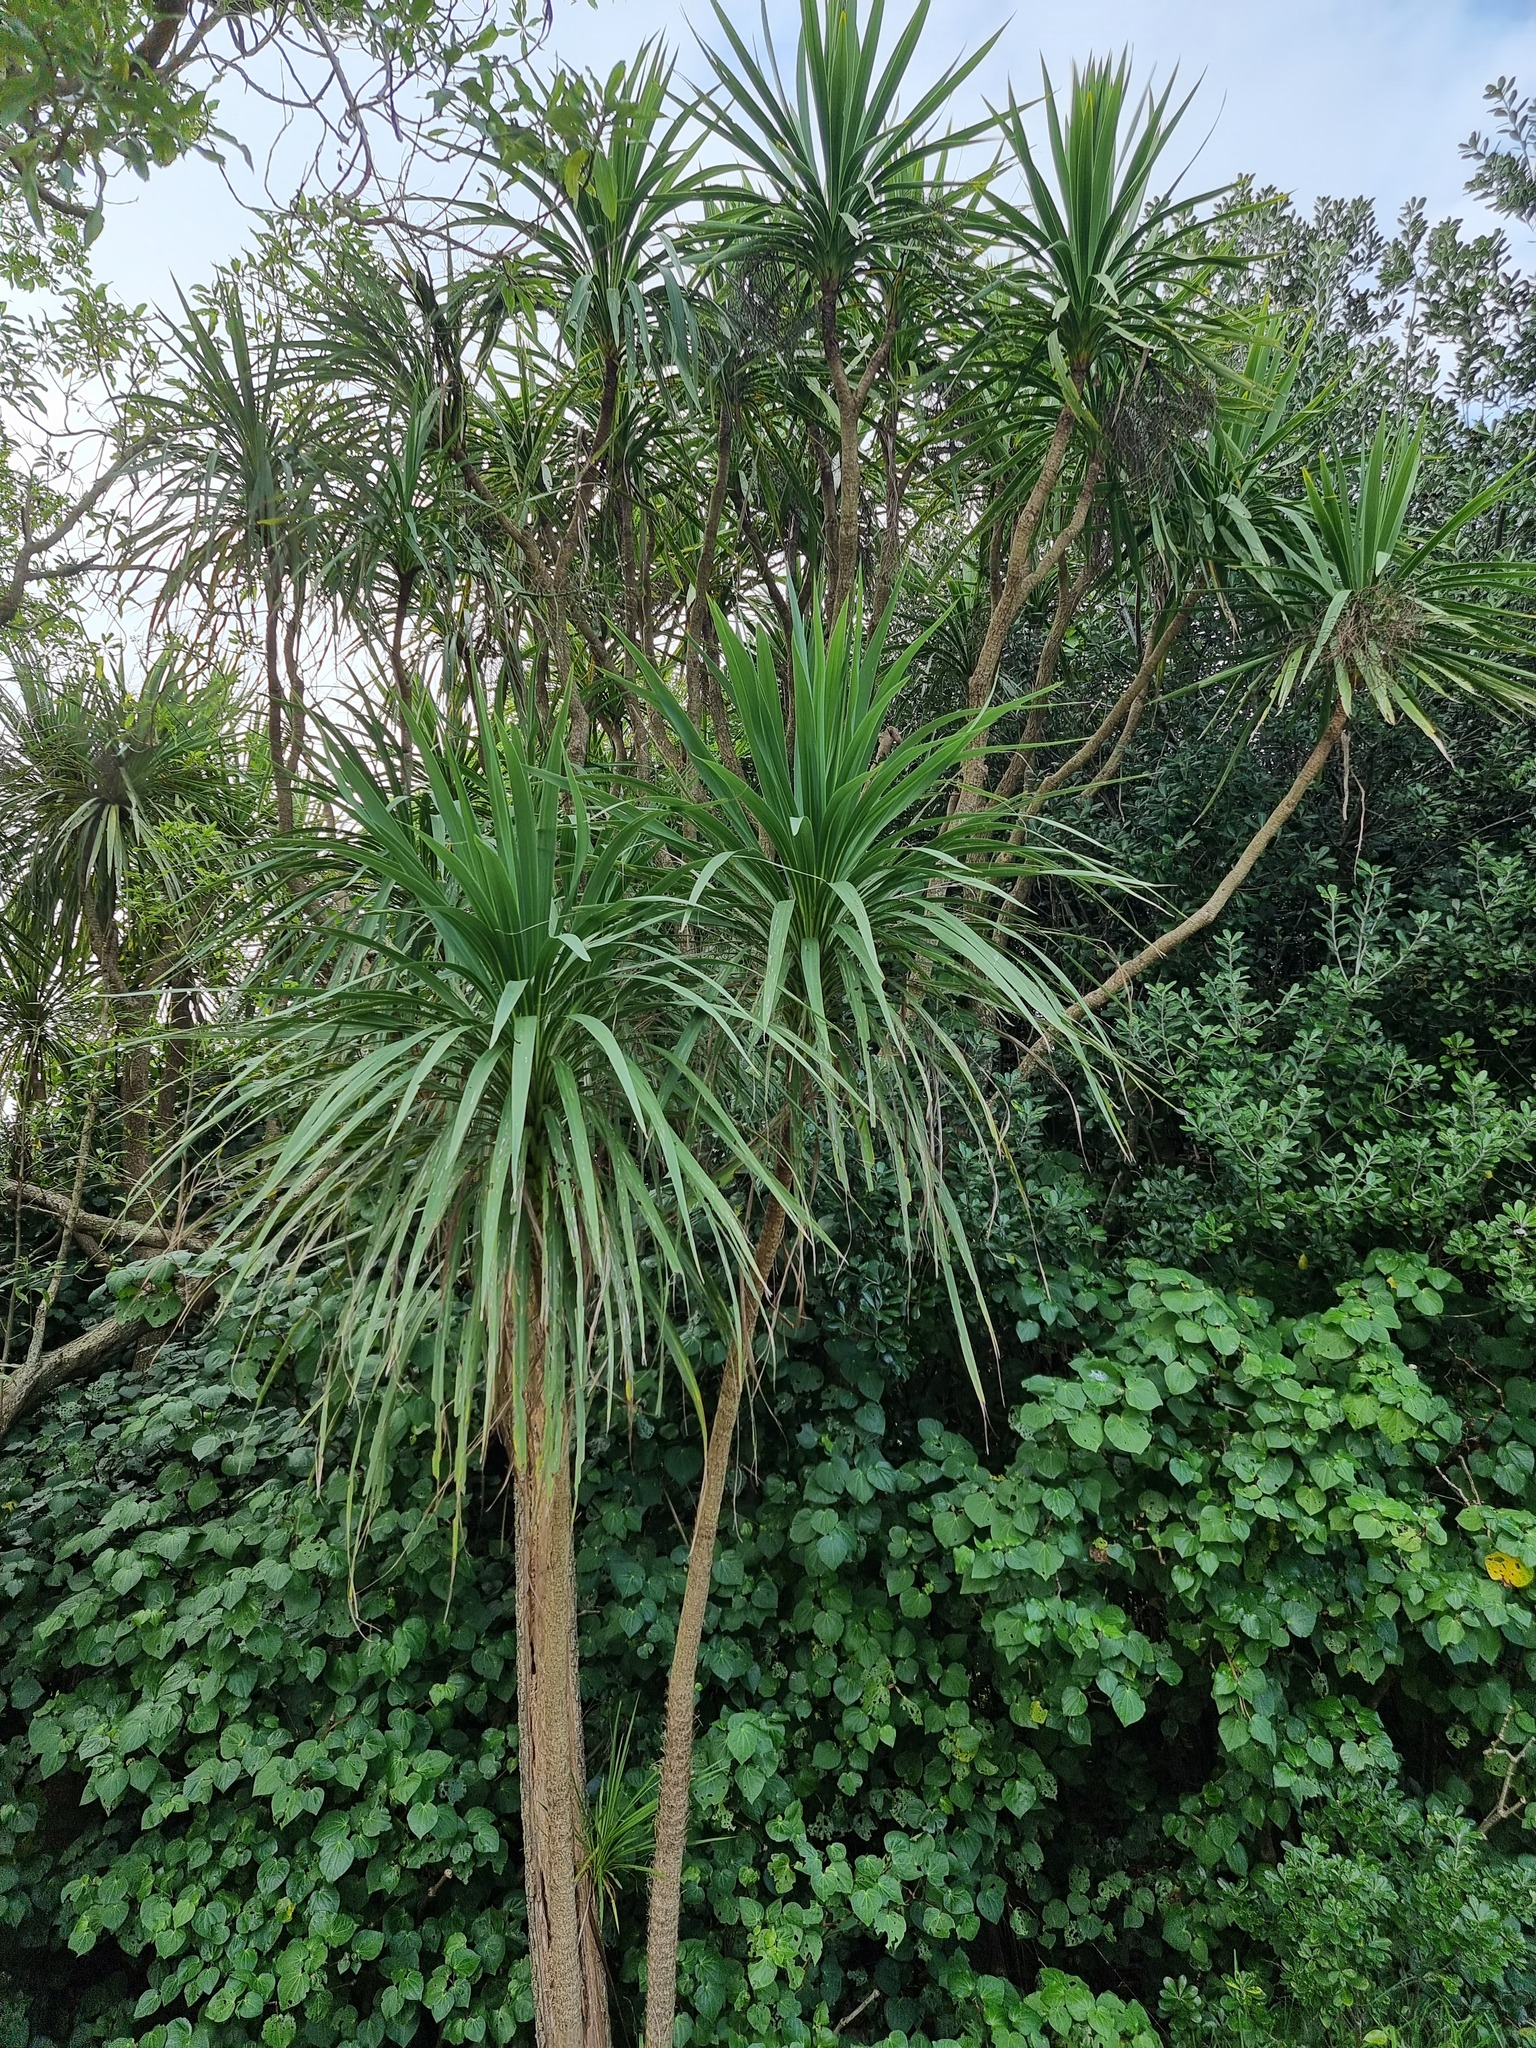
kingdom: Plantae
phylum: Tracheophyta
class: Liliopsida
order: Asparagales
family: Asparagaceae
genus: Cordyline
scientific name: Cordyline australis
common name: Cabbage-palm
